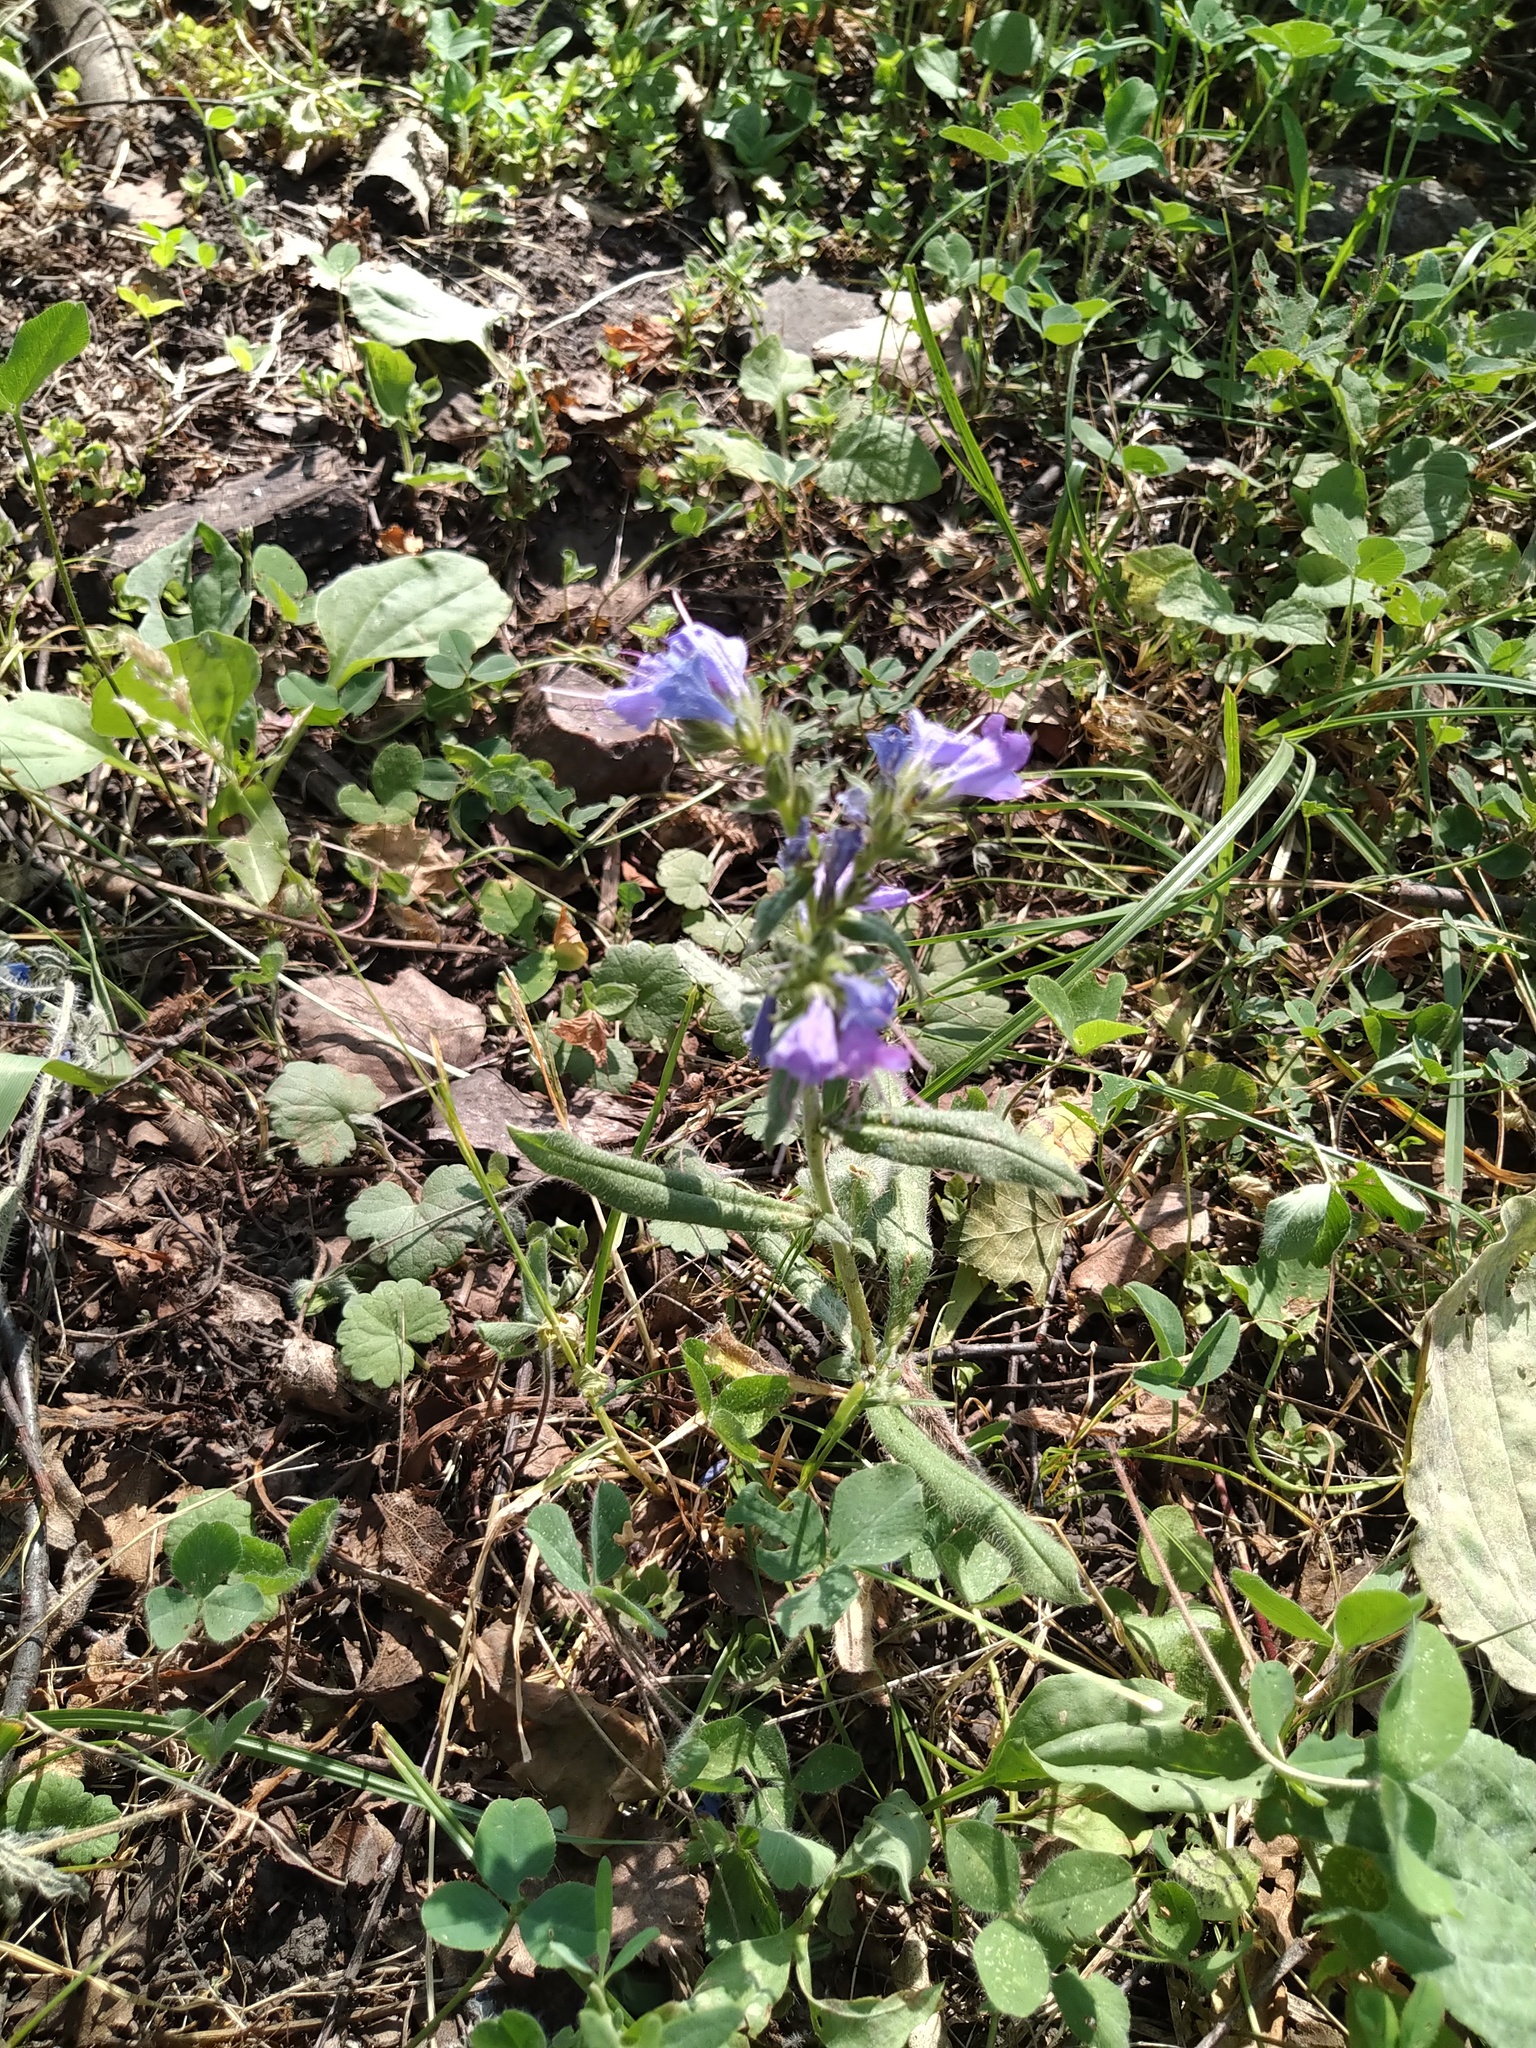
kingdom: Plantae
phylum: Tracheophyta
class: Magnoliopsida
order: Boraginales
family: Boraginaceae
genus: Echium
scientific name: Echium vulgare
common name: Common viper's bugloss
